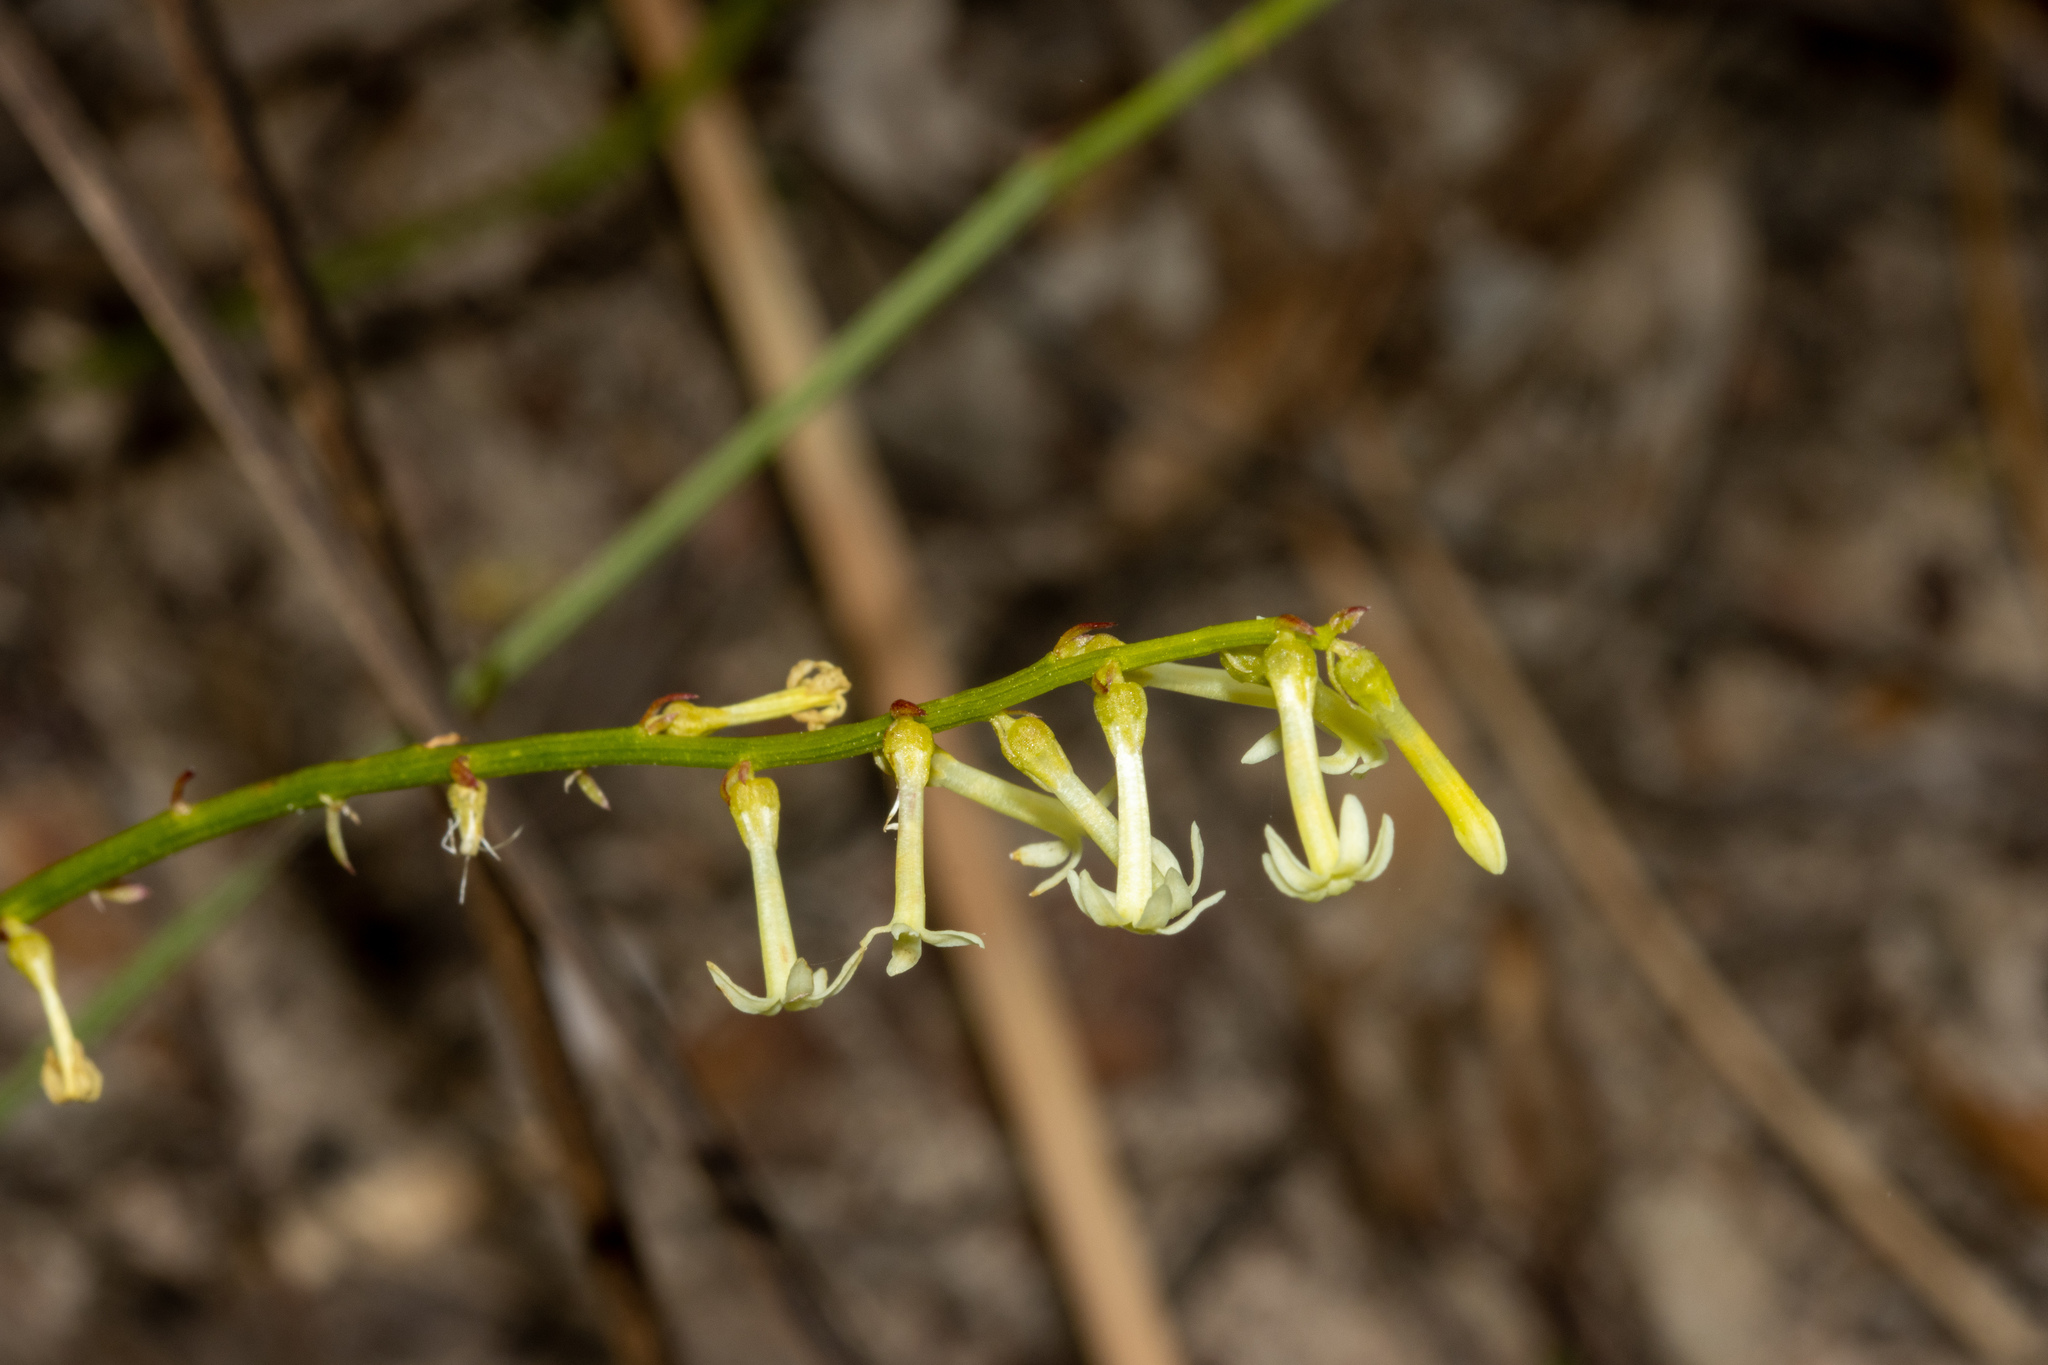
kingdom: Plantae
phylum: Tracheophyta
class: Magnoliopsida
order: Celastrales
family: Celastraceae
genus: Stackhousia
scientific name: Stackhousia monogyna
